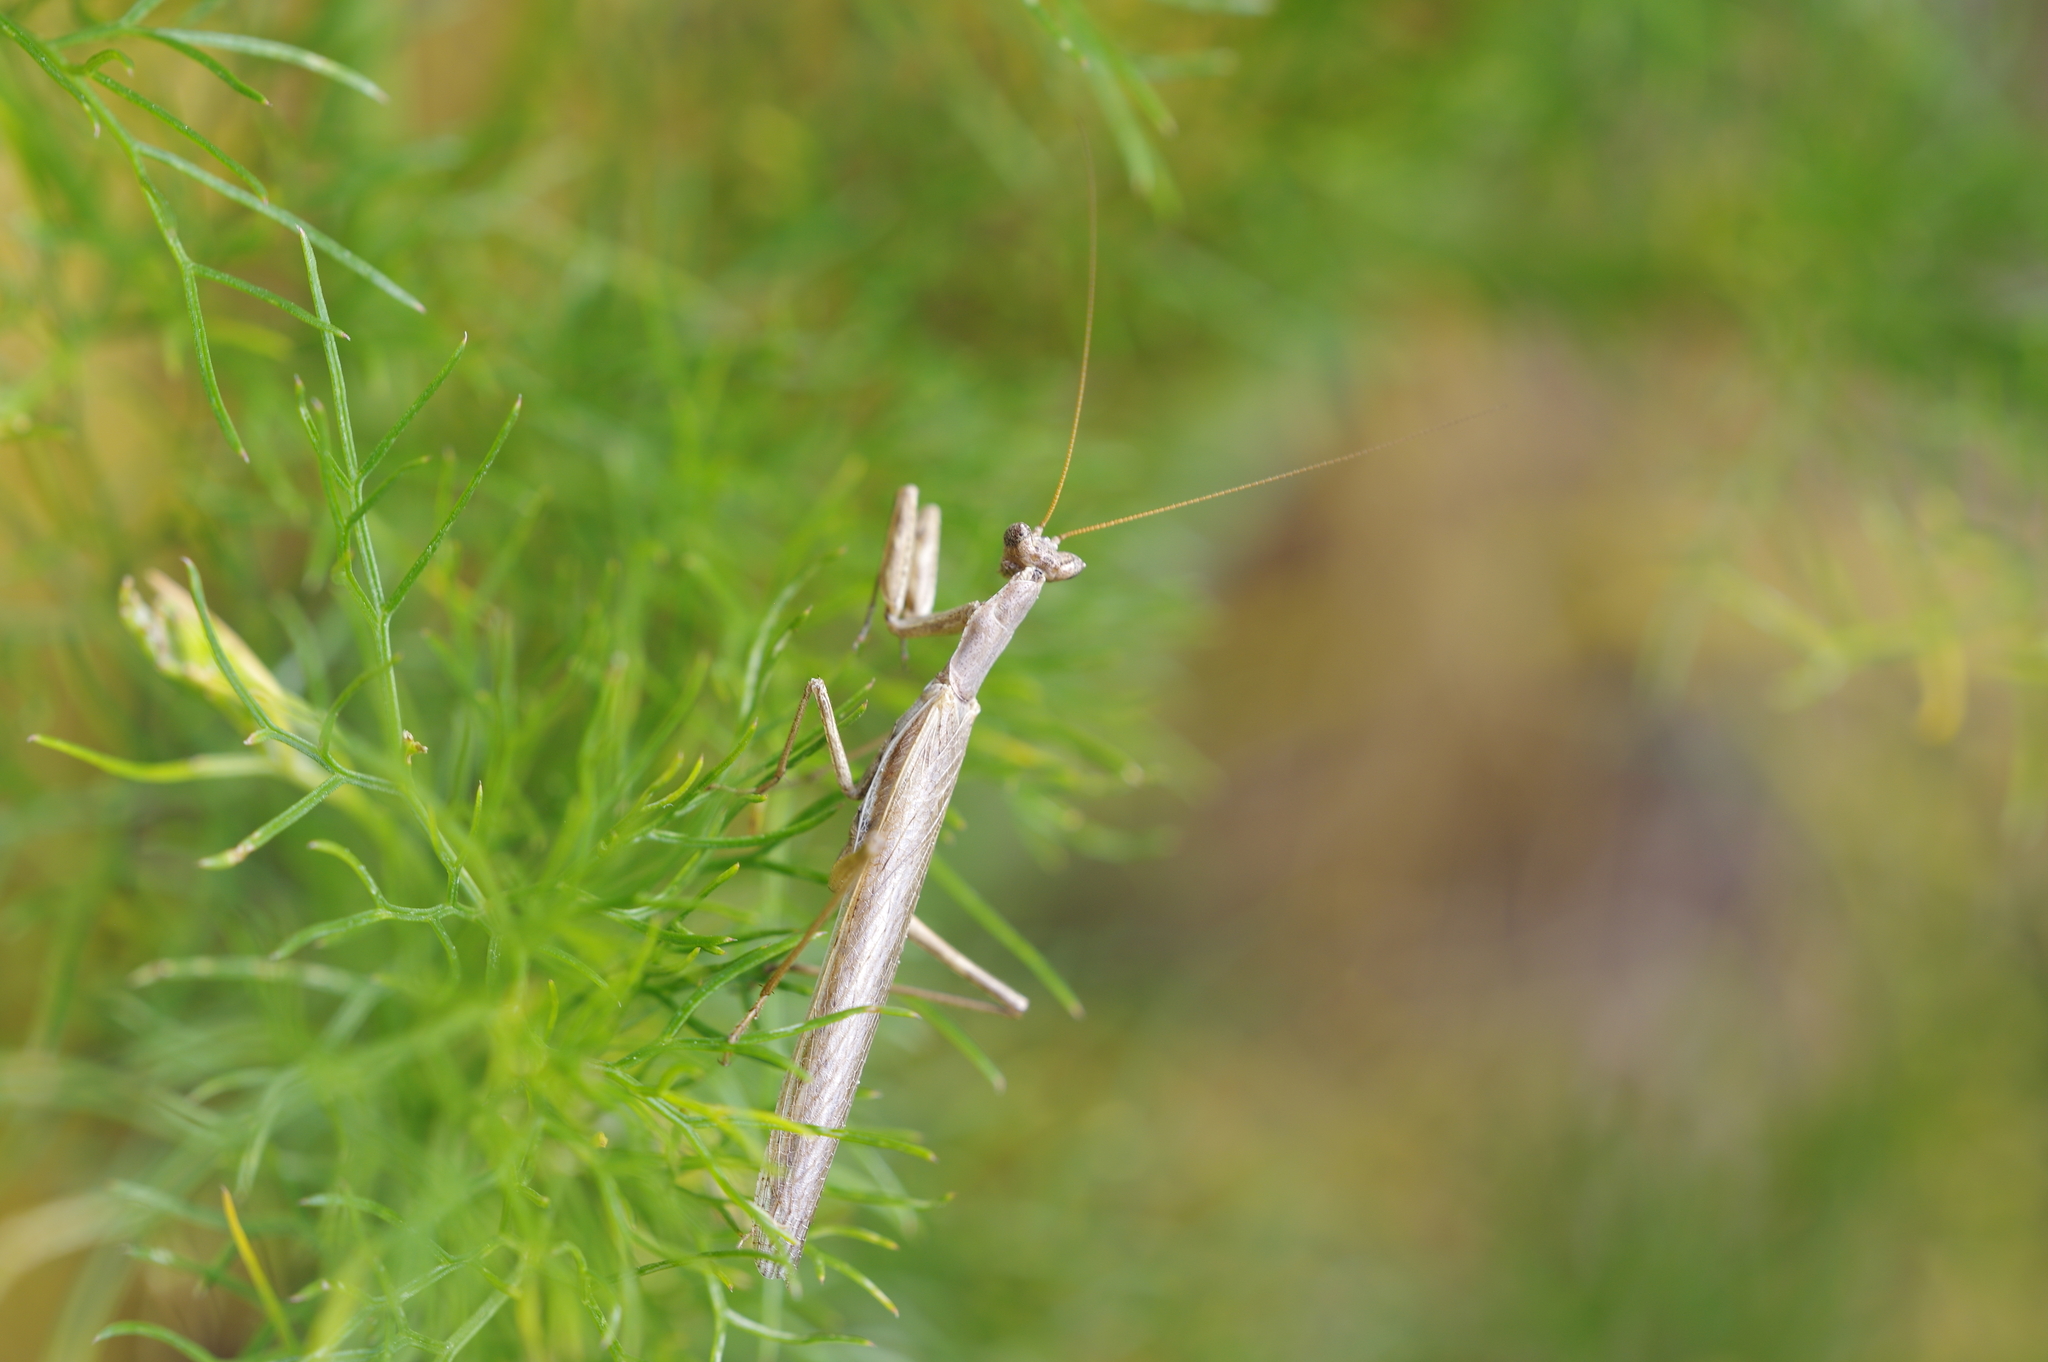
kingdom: Animalia
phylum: Arthropoda
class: Insecta
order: Mantodea
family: Amelidae
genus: Ameles
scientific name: Ameles heldreichi
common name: Heldreich's dwarf mantis
